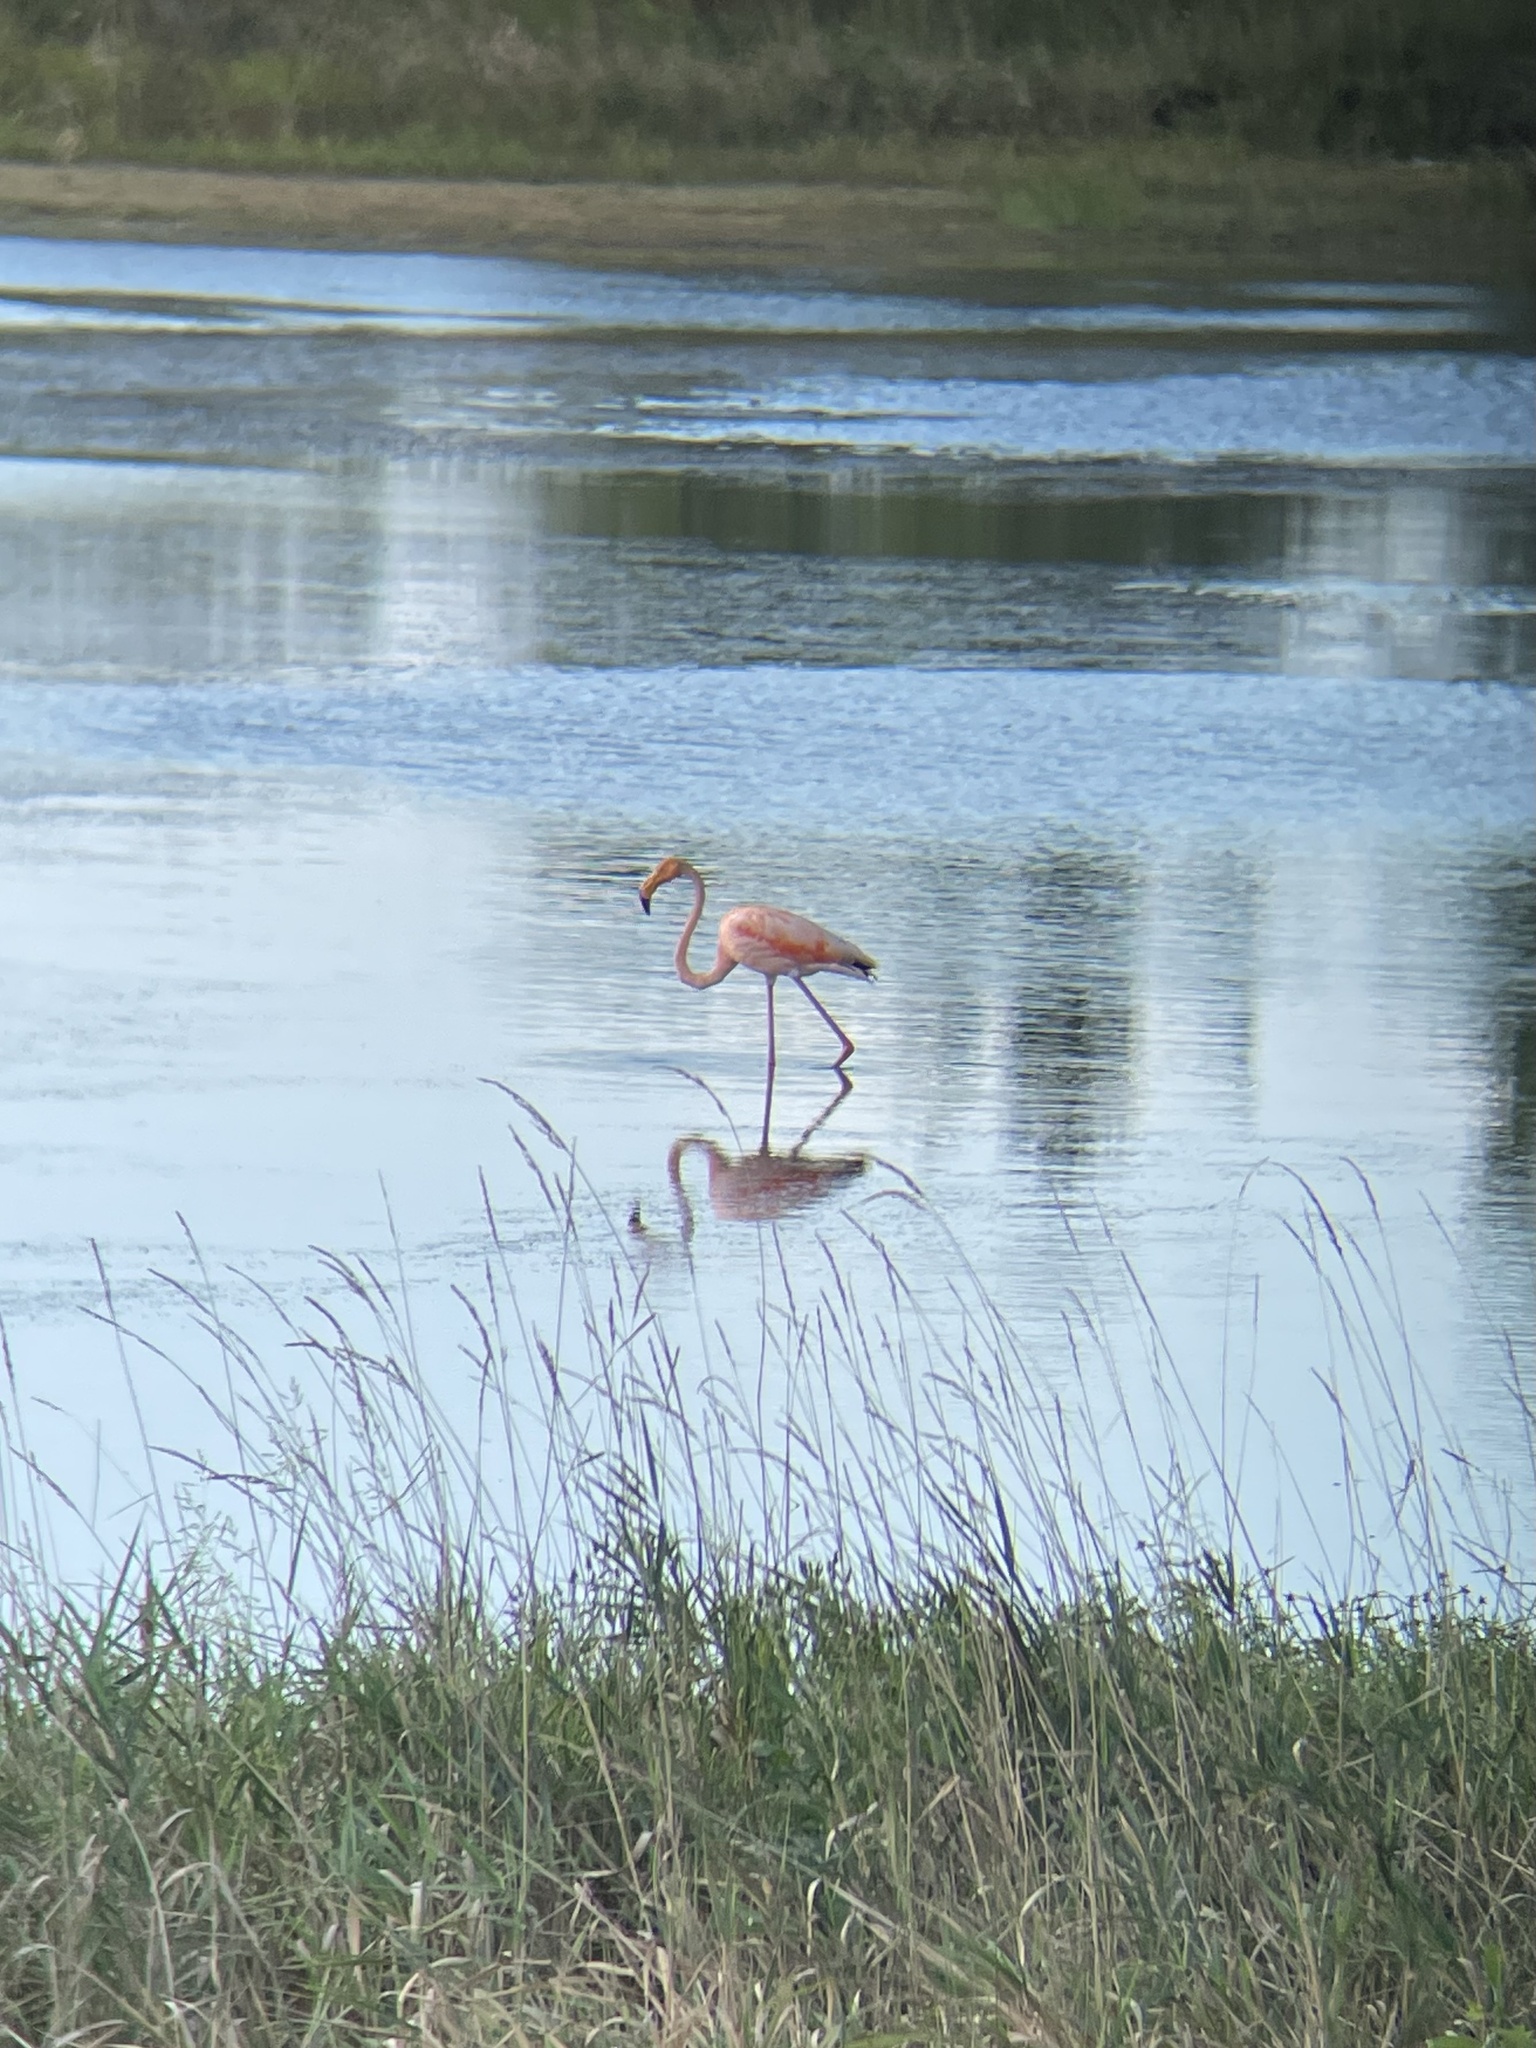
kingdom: Animalia
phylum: Chordata
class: Aves
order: Phoenicopteriformes
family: Phoenicopteridae
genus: Phoenicopterus
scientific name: Phoenicopterus ruber
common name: American flamingo
